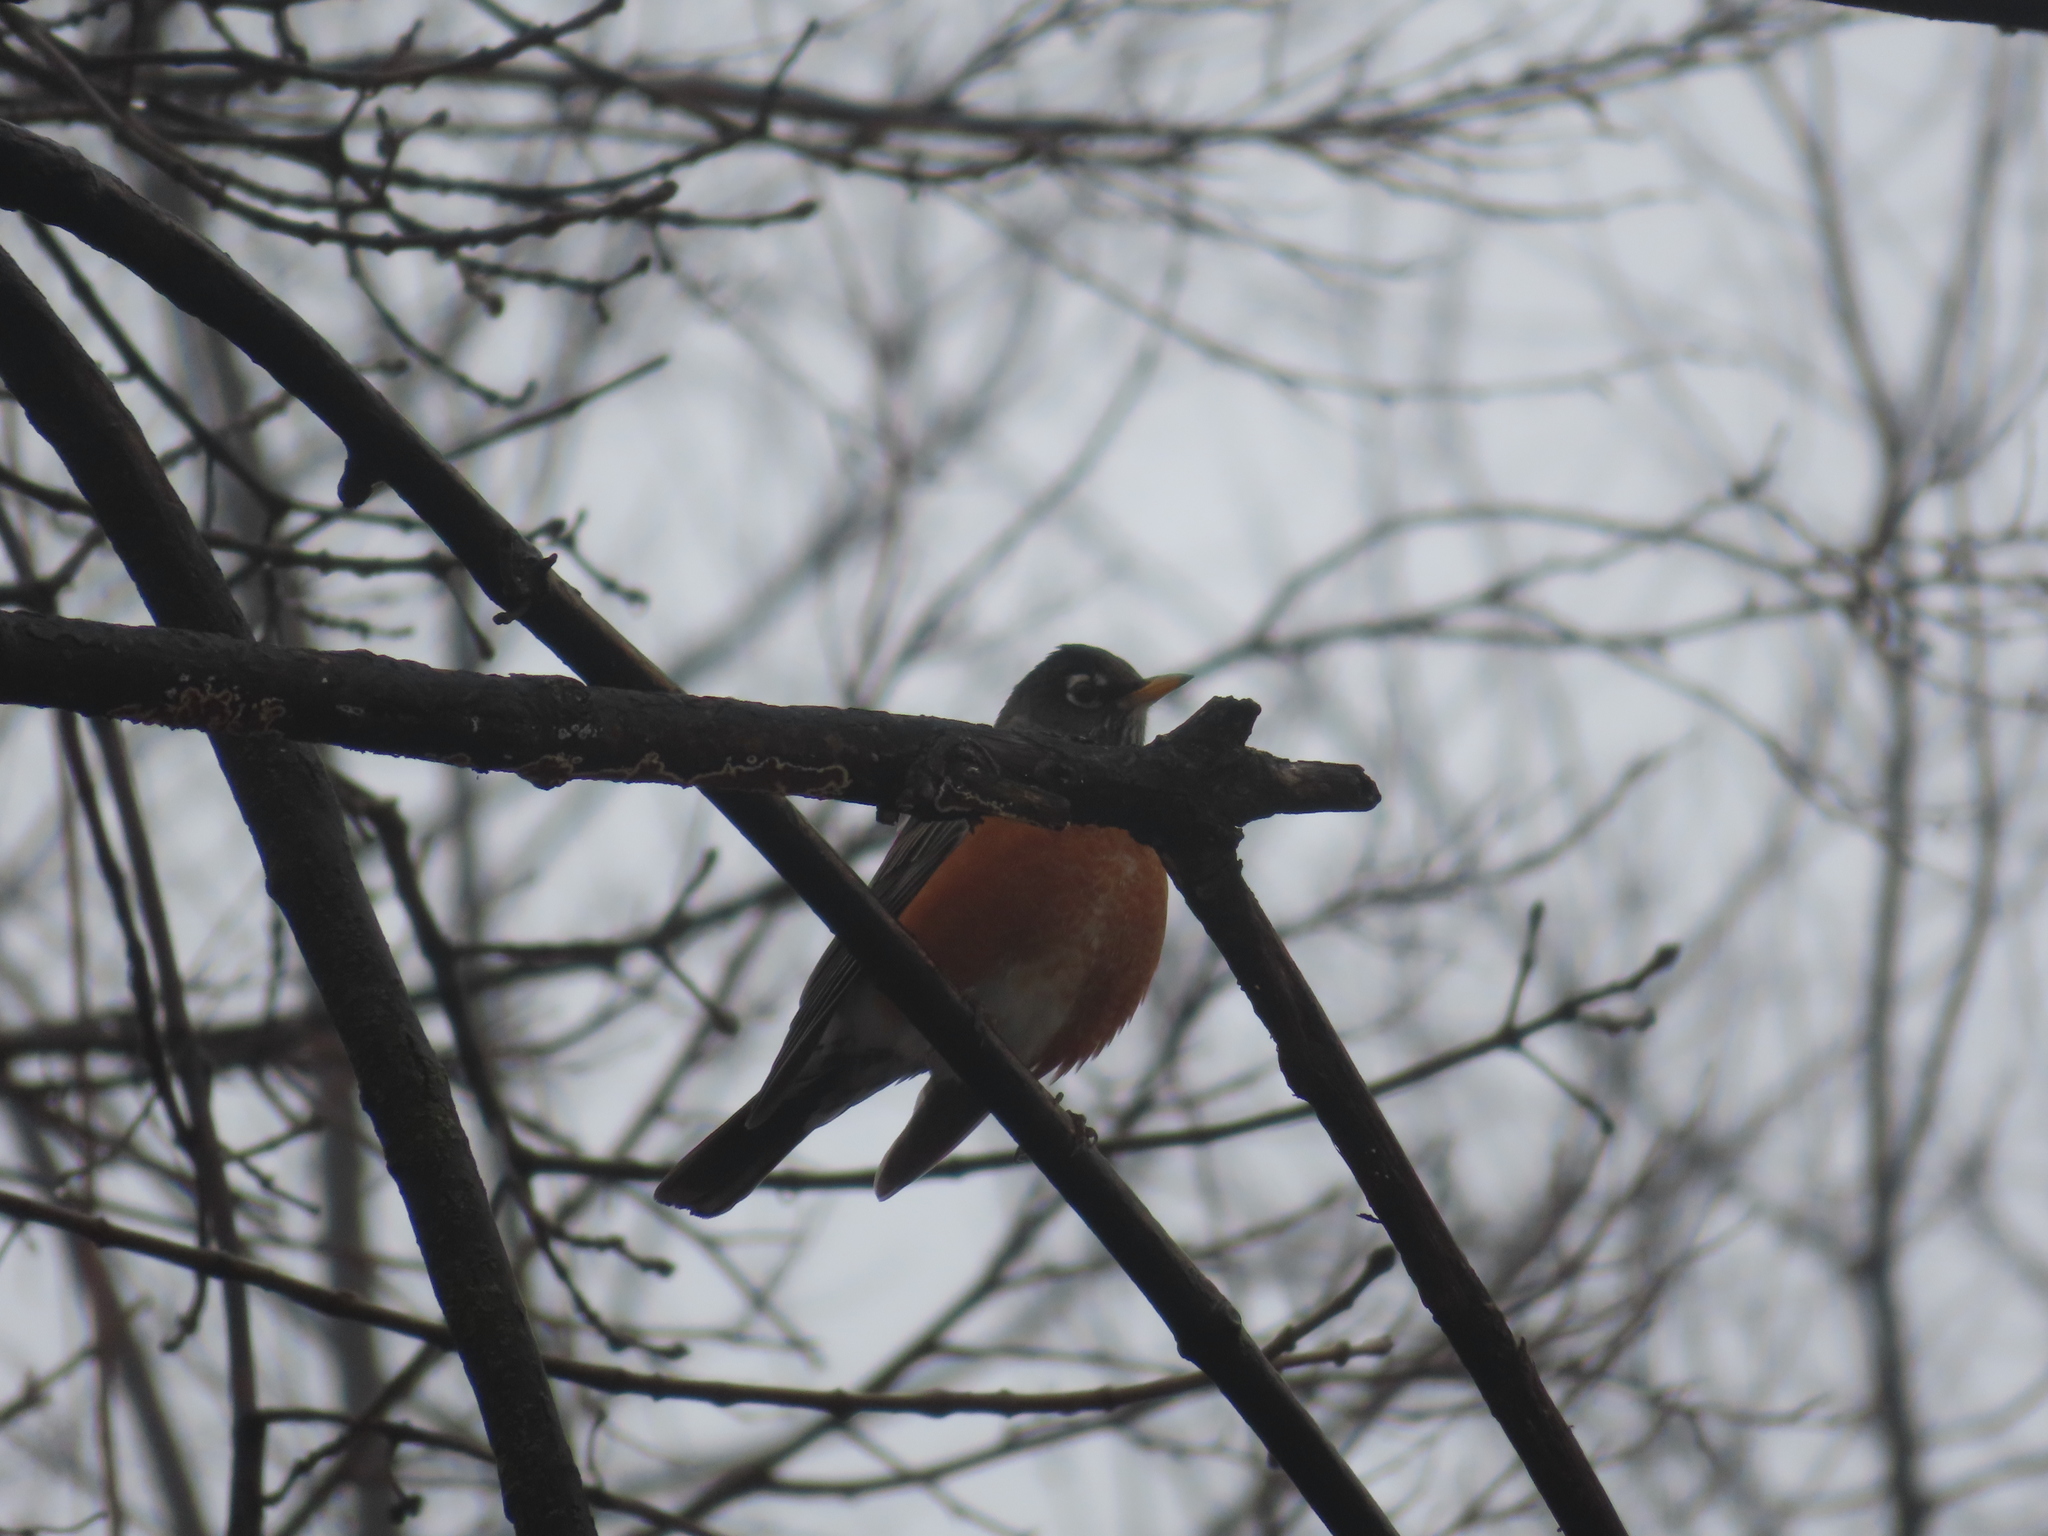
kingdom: Animalia
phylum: Chordata
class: Aves
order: Passeriformes
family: Turdidae
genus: Turdus
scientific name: Turdus migratorius
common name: American robin
